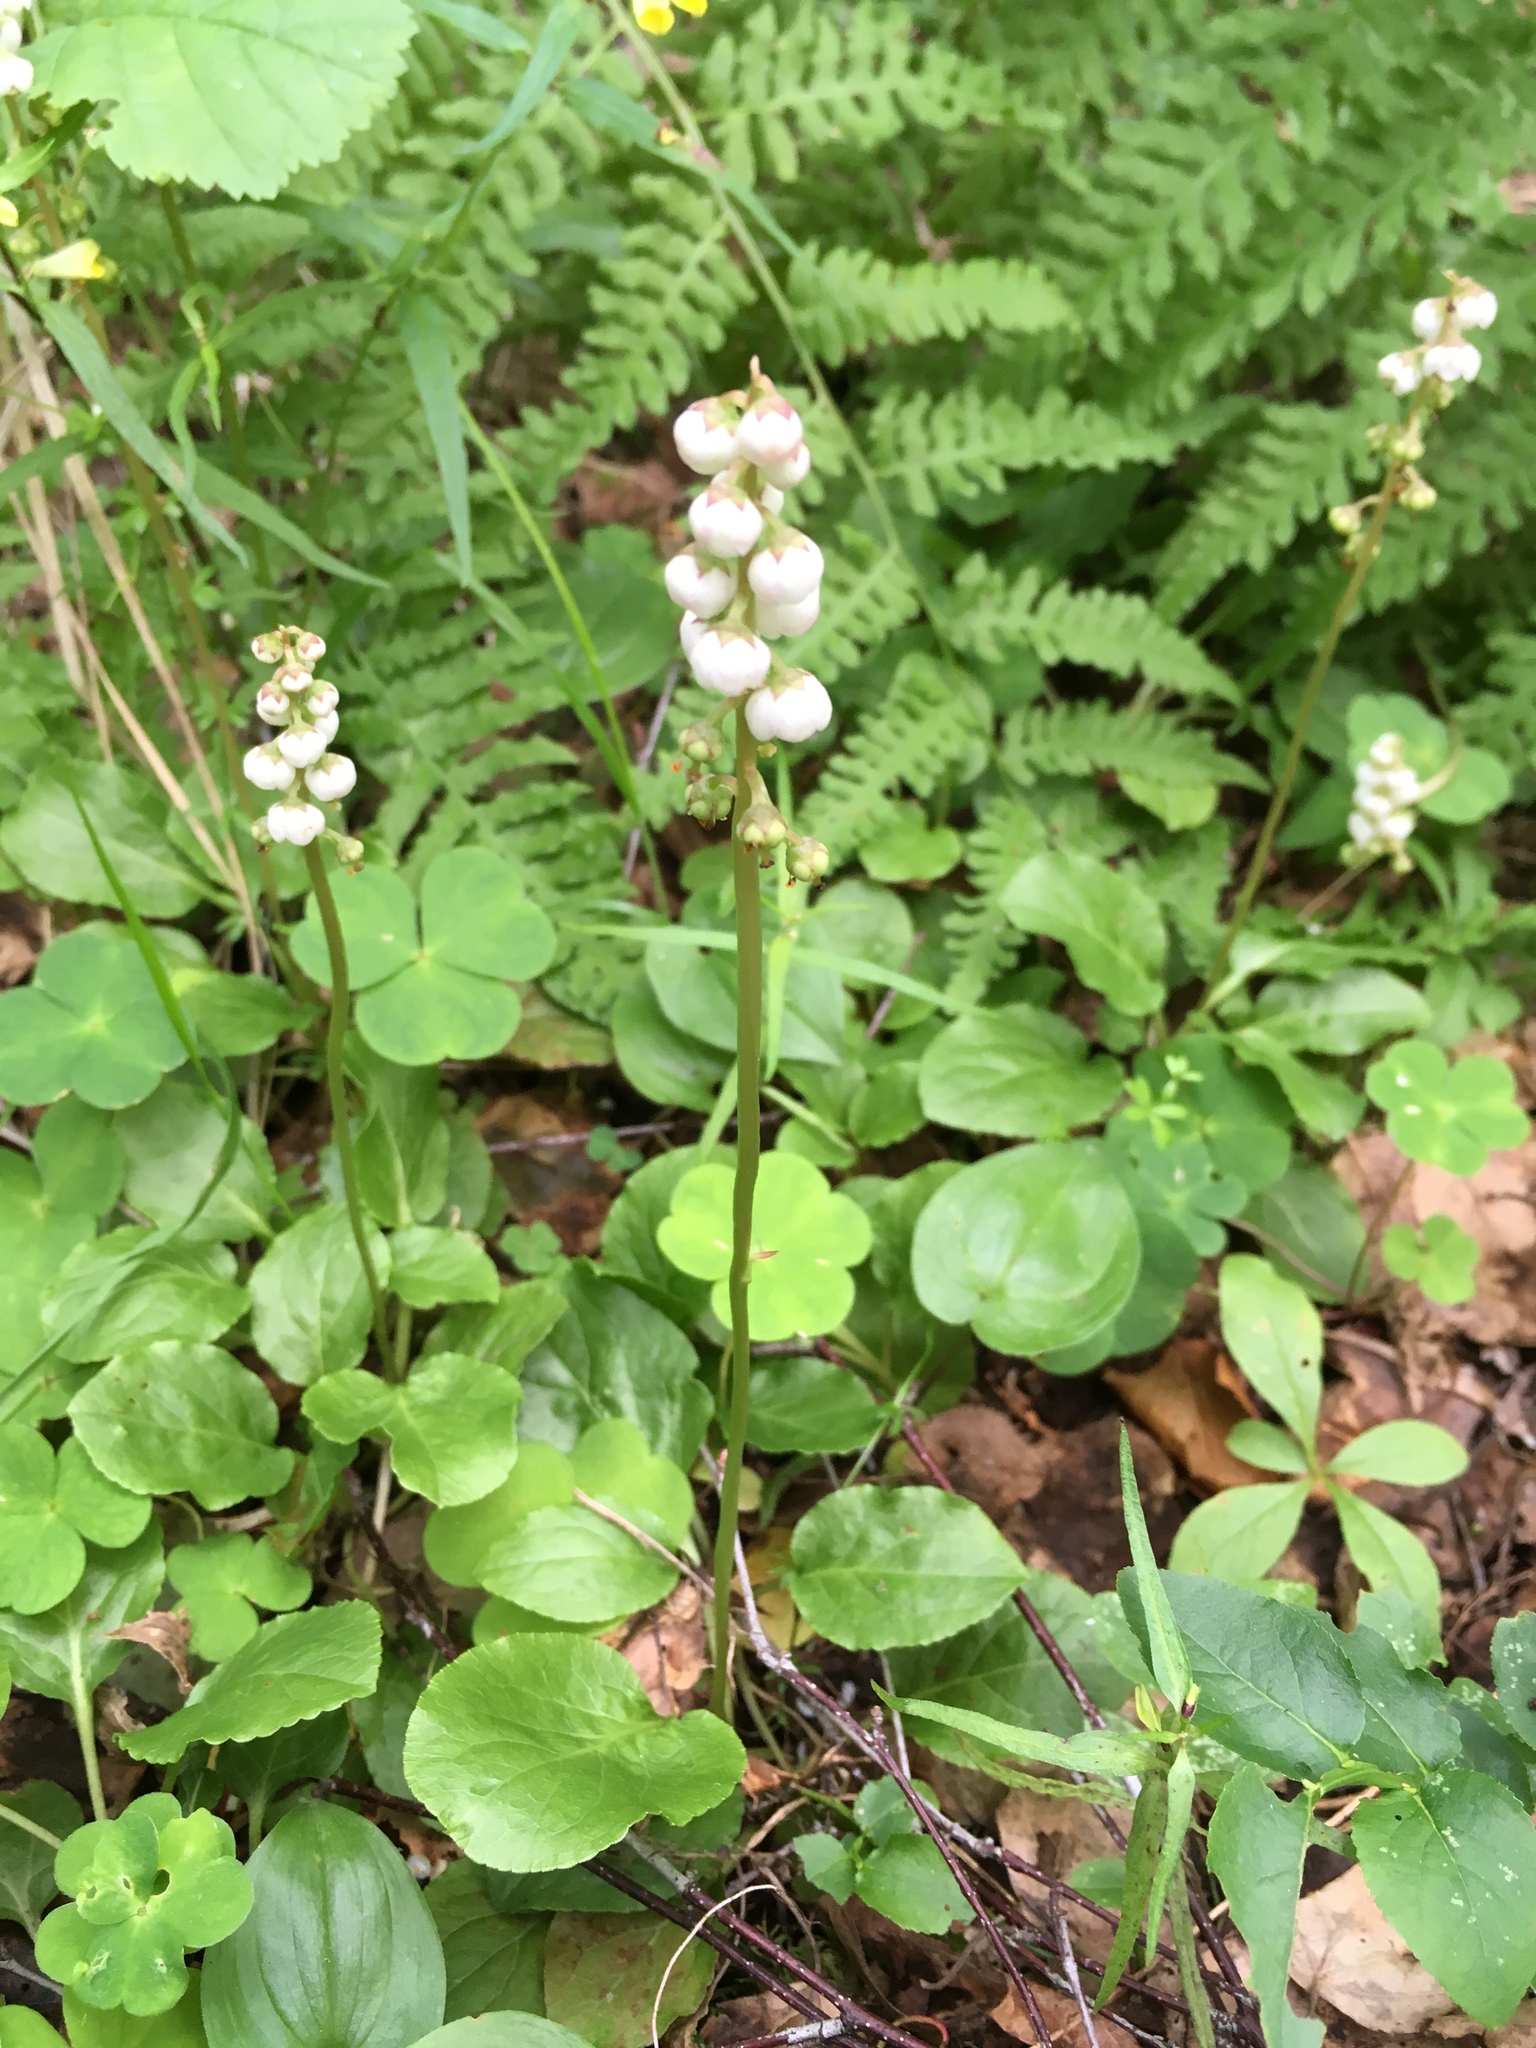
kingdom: Plantae
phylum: Tracheophyta
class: Magnoliopsida
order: Ericales
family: Ericaceae
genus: Pyrola
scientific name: Pyrola minor
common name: Common wintergreen
